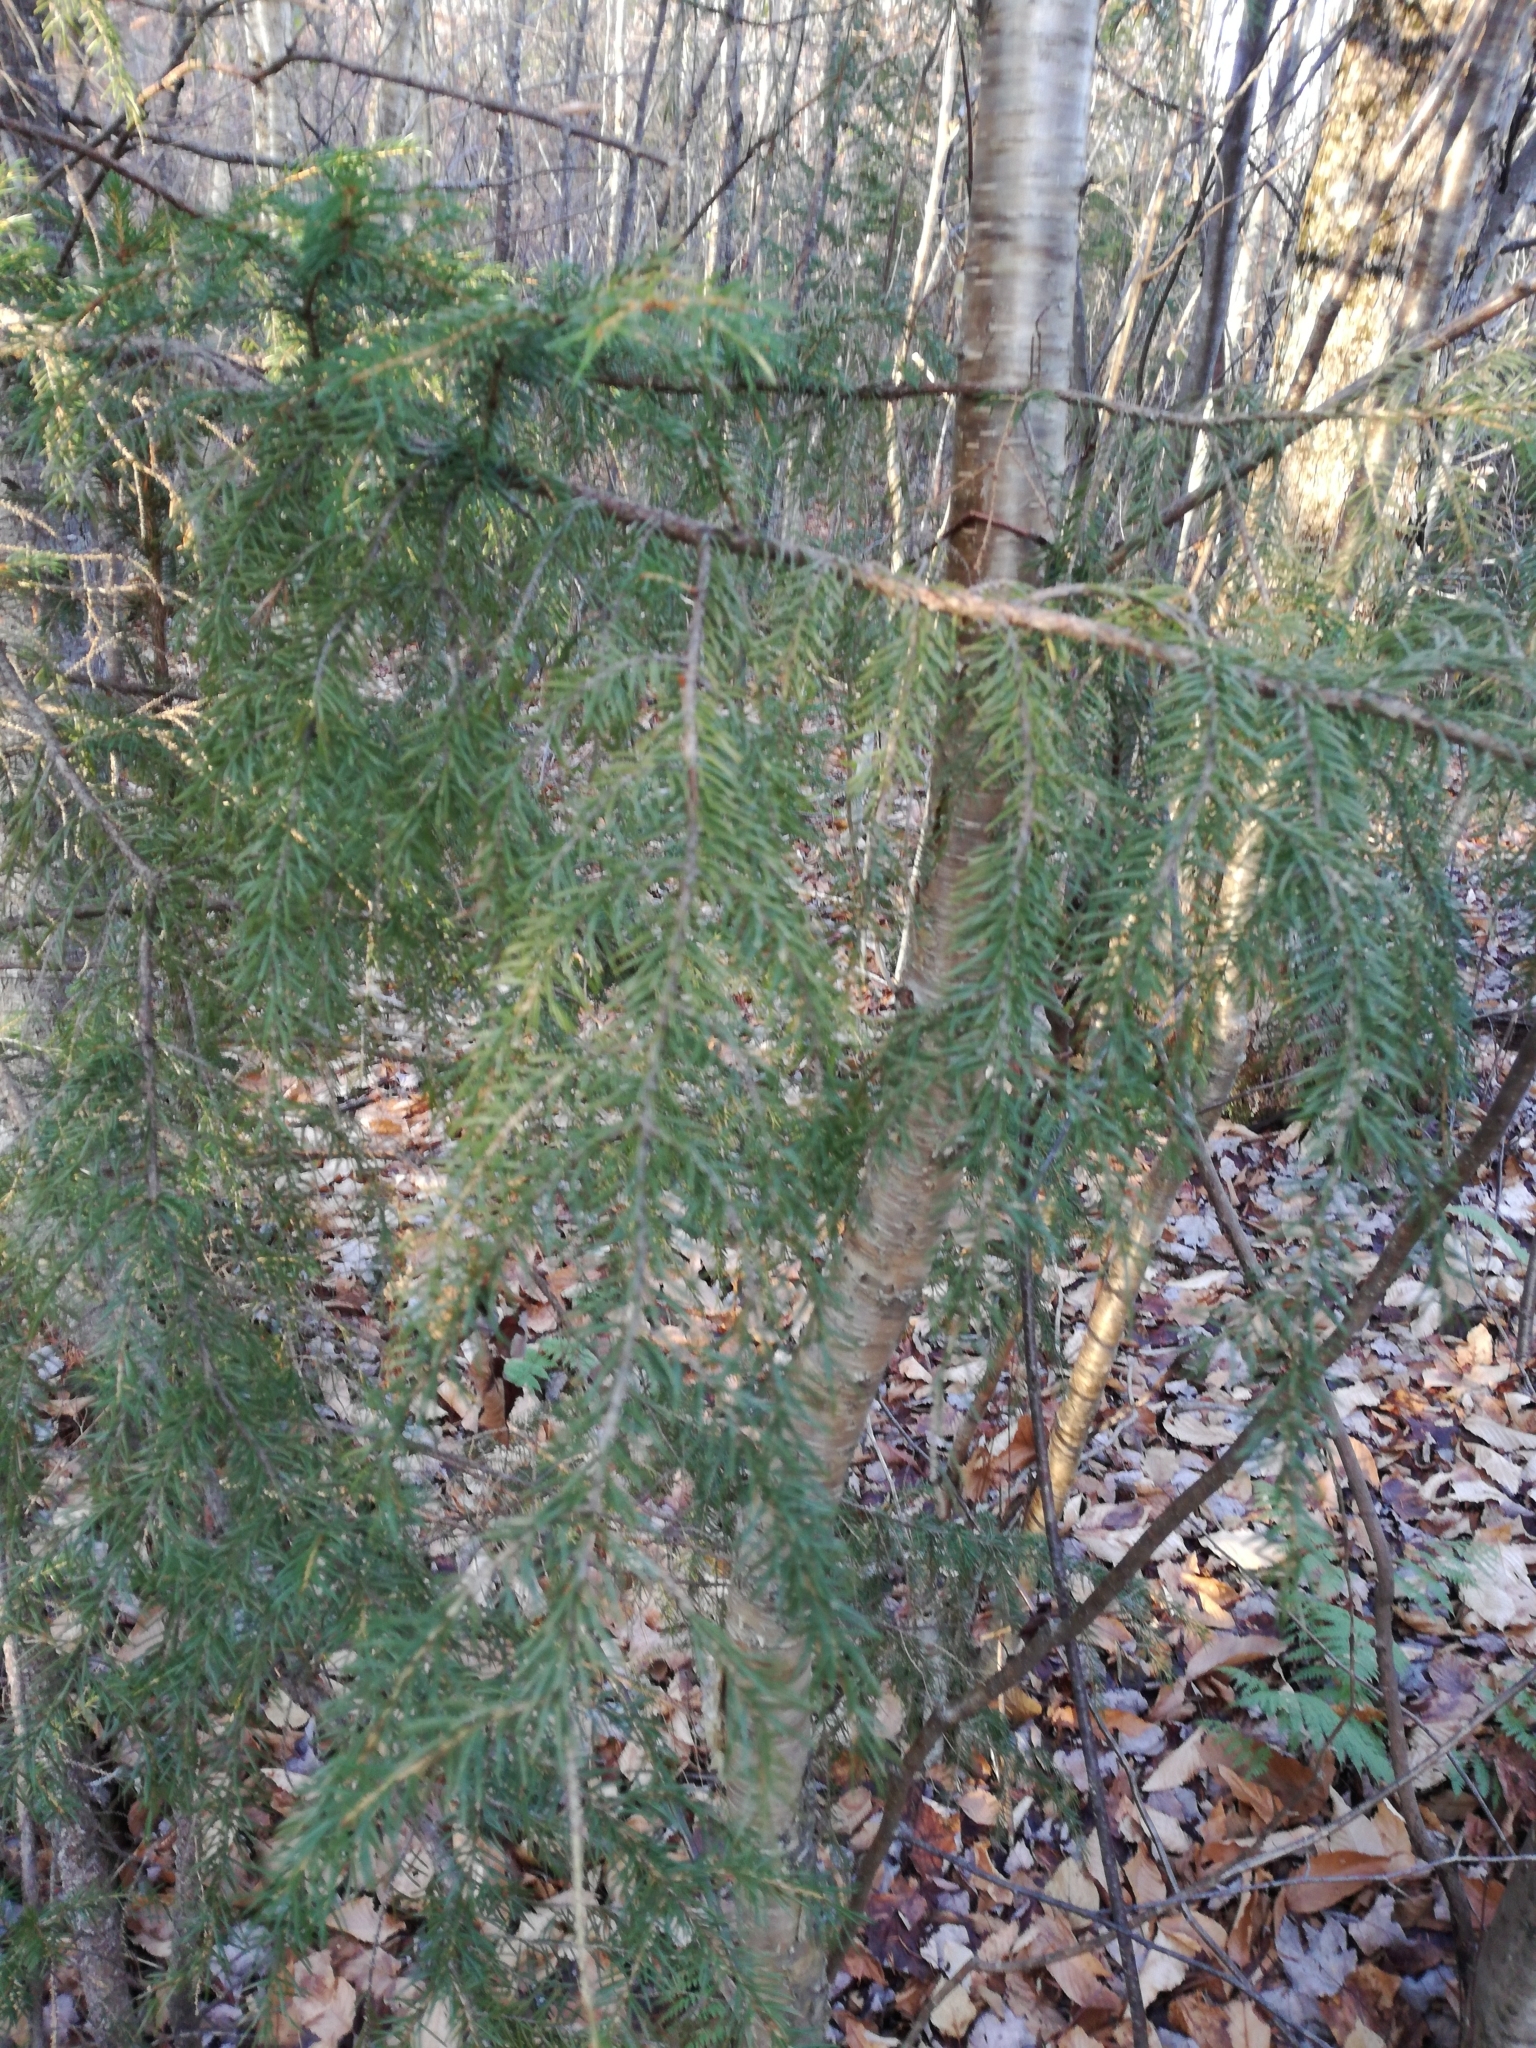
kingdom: Plantae
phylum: Tracheophyta
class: Pinopsida
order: Pinales
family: Pinaceae
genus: Picea
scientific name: Picea rubens
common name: Red spruce
